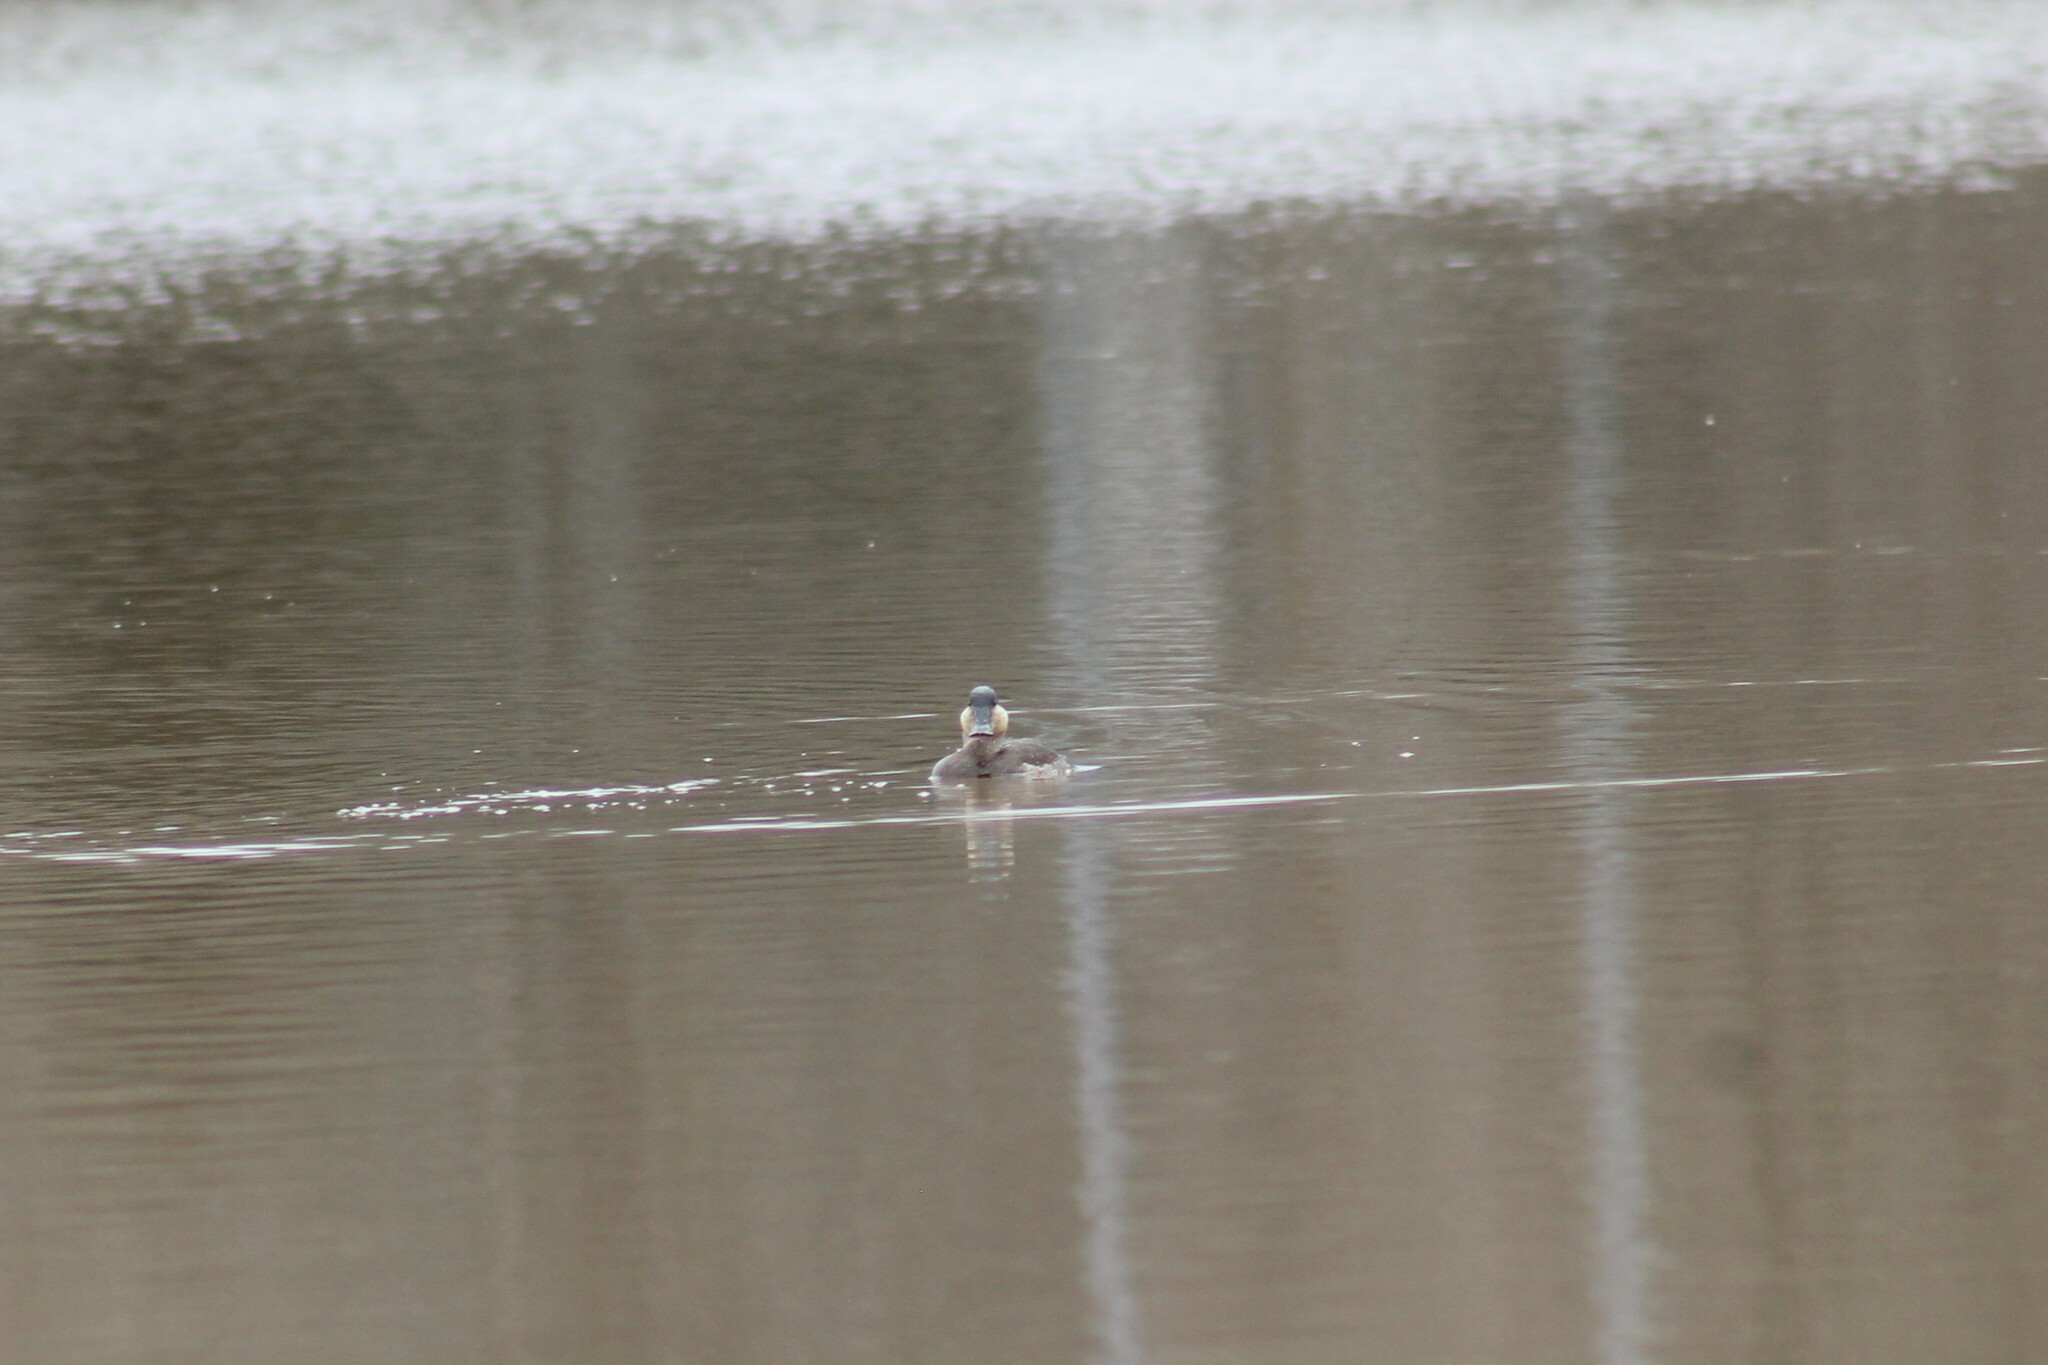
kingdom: Animalia
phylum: Chordata
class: Aves
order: Anseriformes
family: Anatidae
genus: Oxyura
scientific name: Oxyura jamaicensis
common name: Ruddy duck
